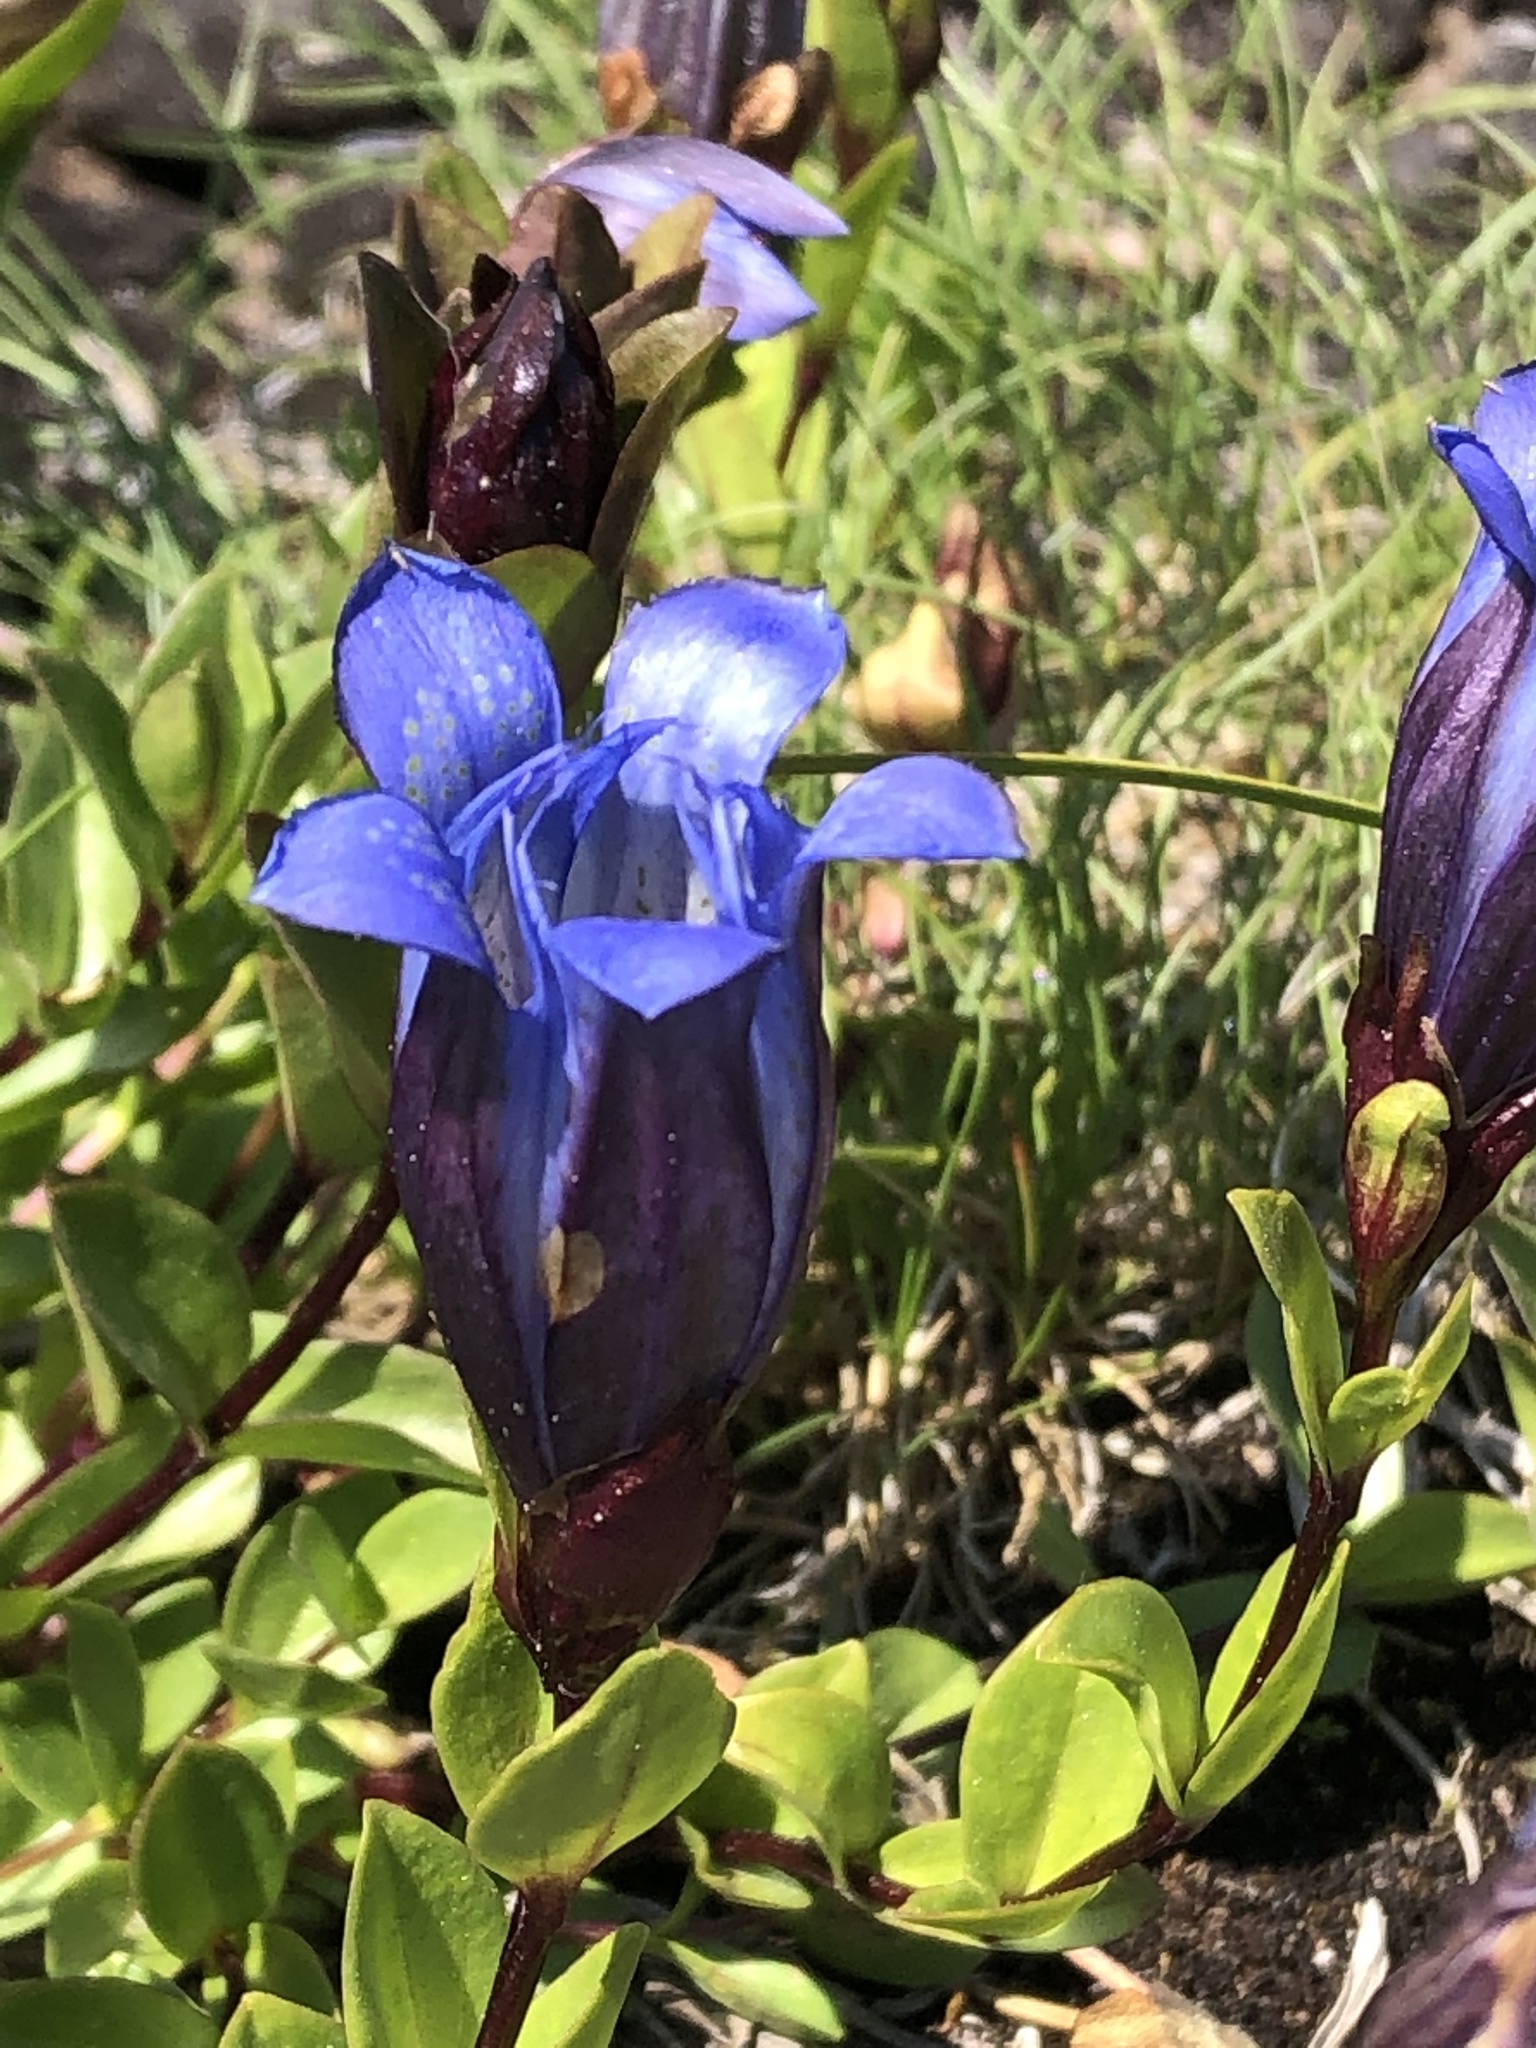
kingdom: Plantae
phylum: Tracheophyta
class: Magnoliopsida
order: Gentianales
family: Gentianaceae
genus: Gentiana
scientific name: Gentiana calycosa
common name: Rainier pleated gentian
